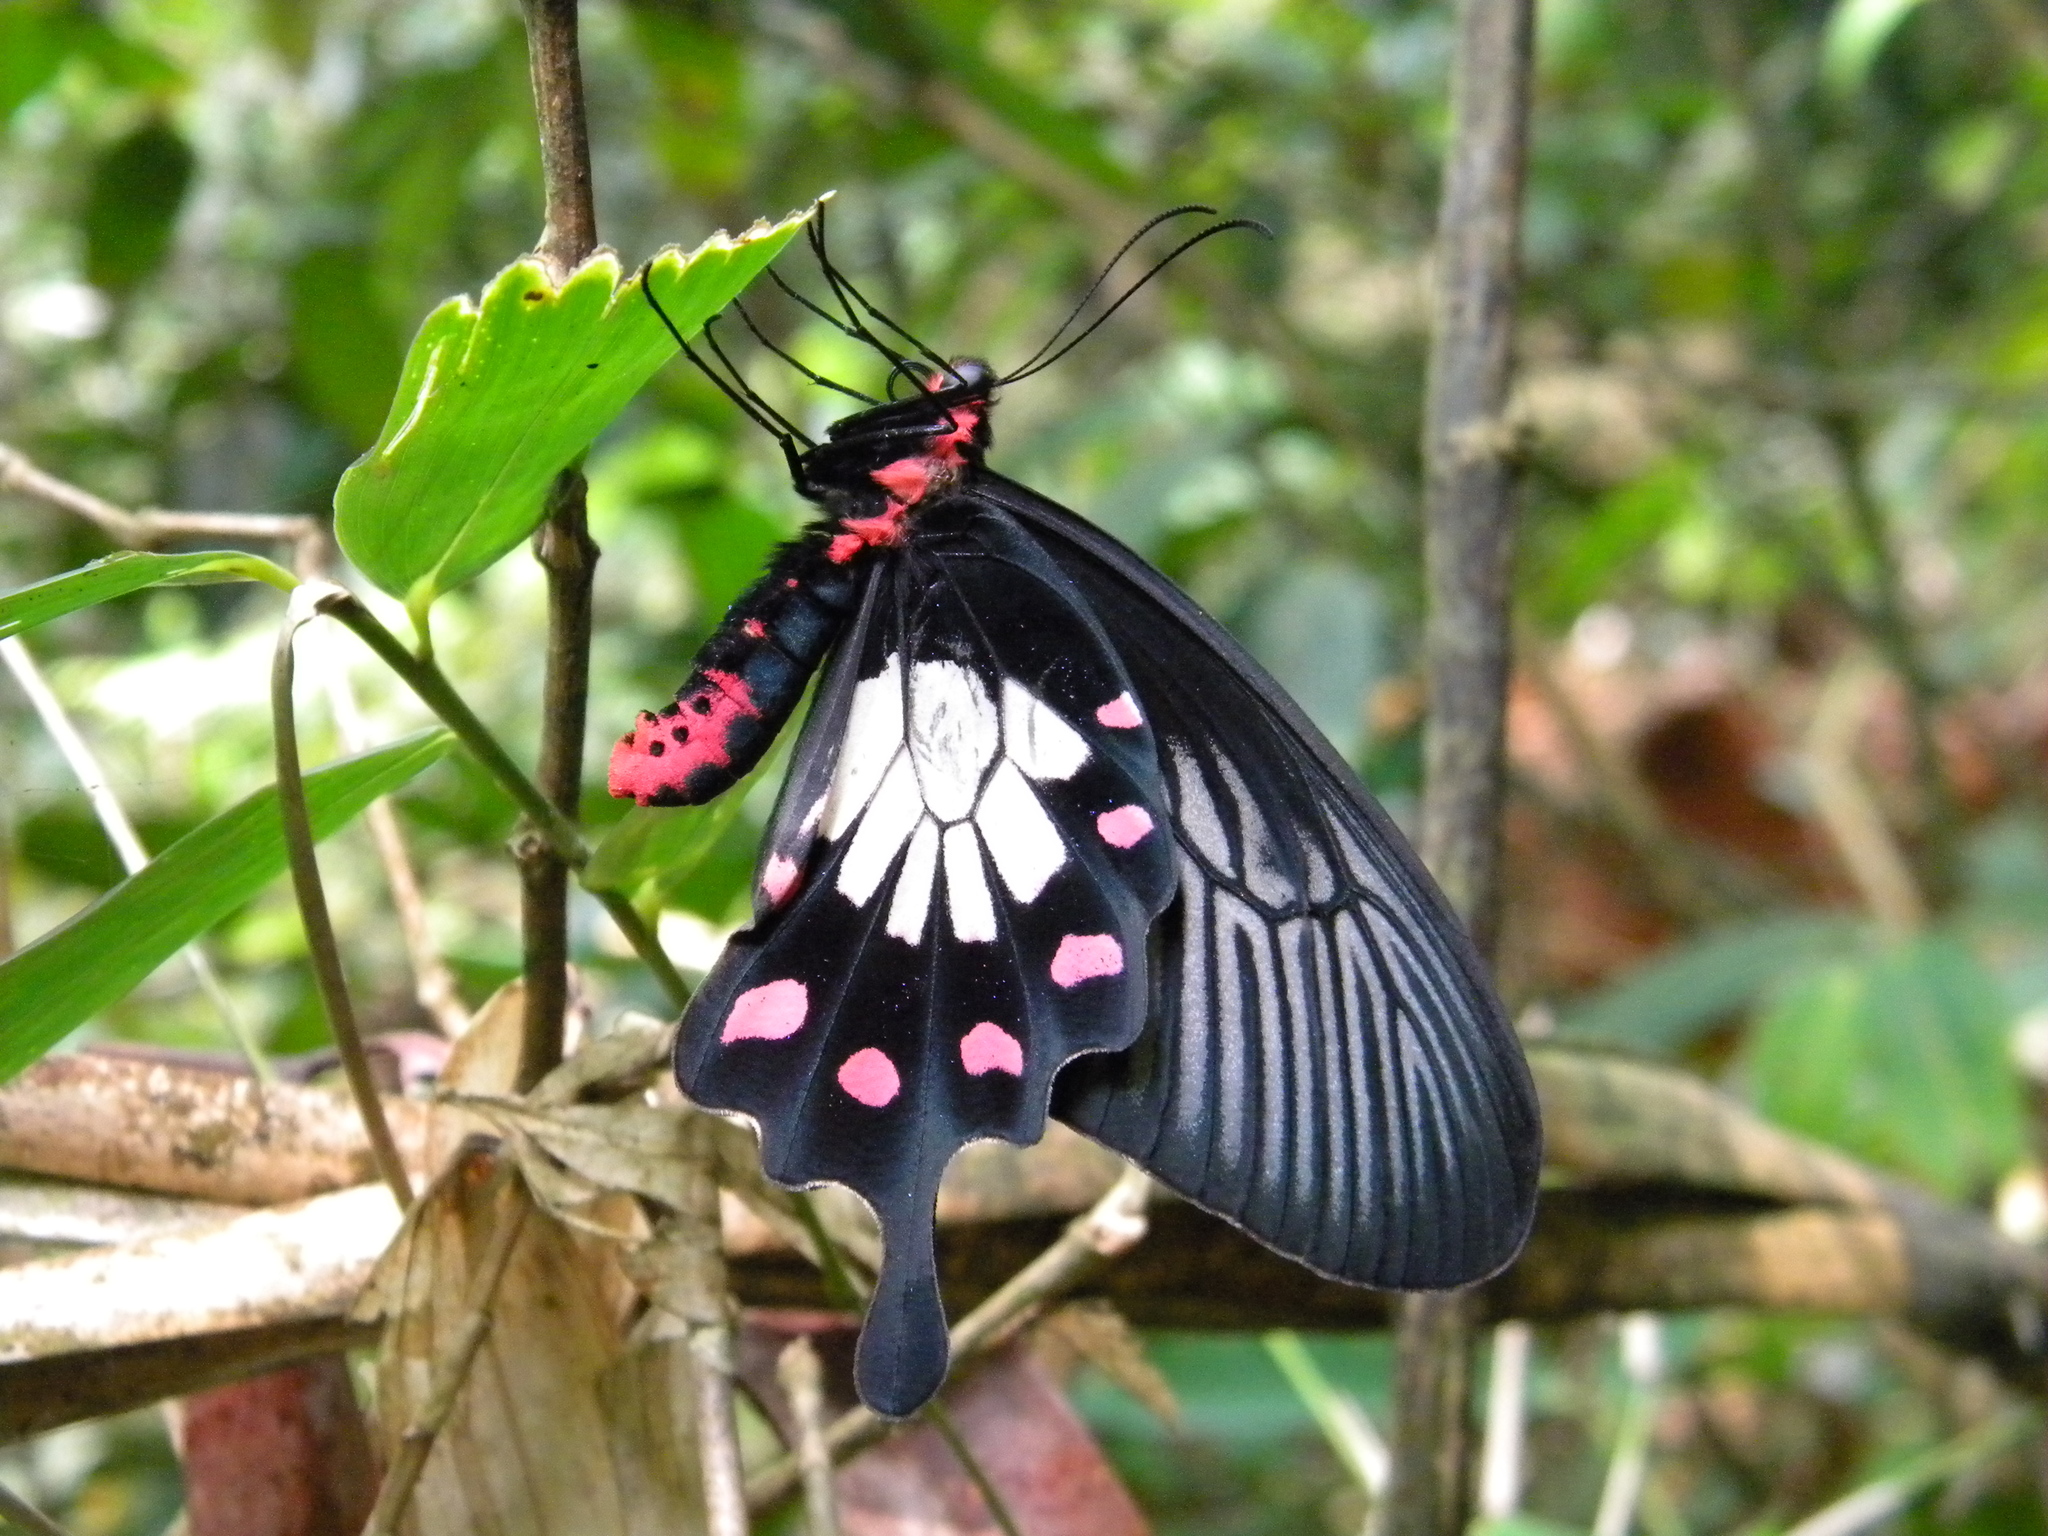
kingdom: Animalia
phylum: Arthropoda
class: Insecta
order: Lepidoptera
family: Papilionidae
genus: Pachliopta
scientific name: Pachliopta pandiyana
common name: Malabar rose
